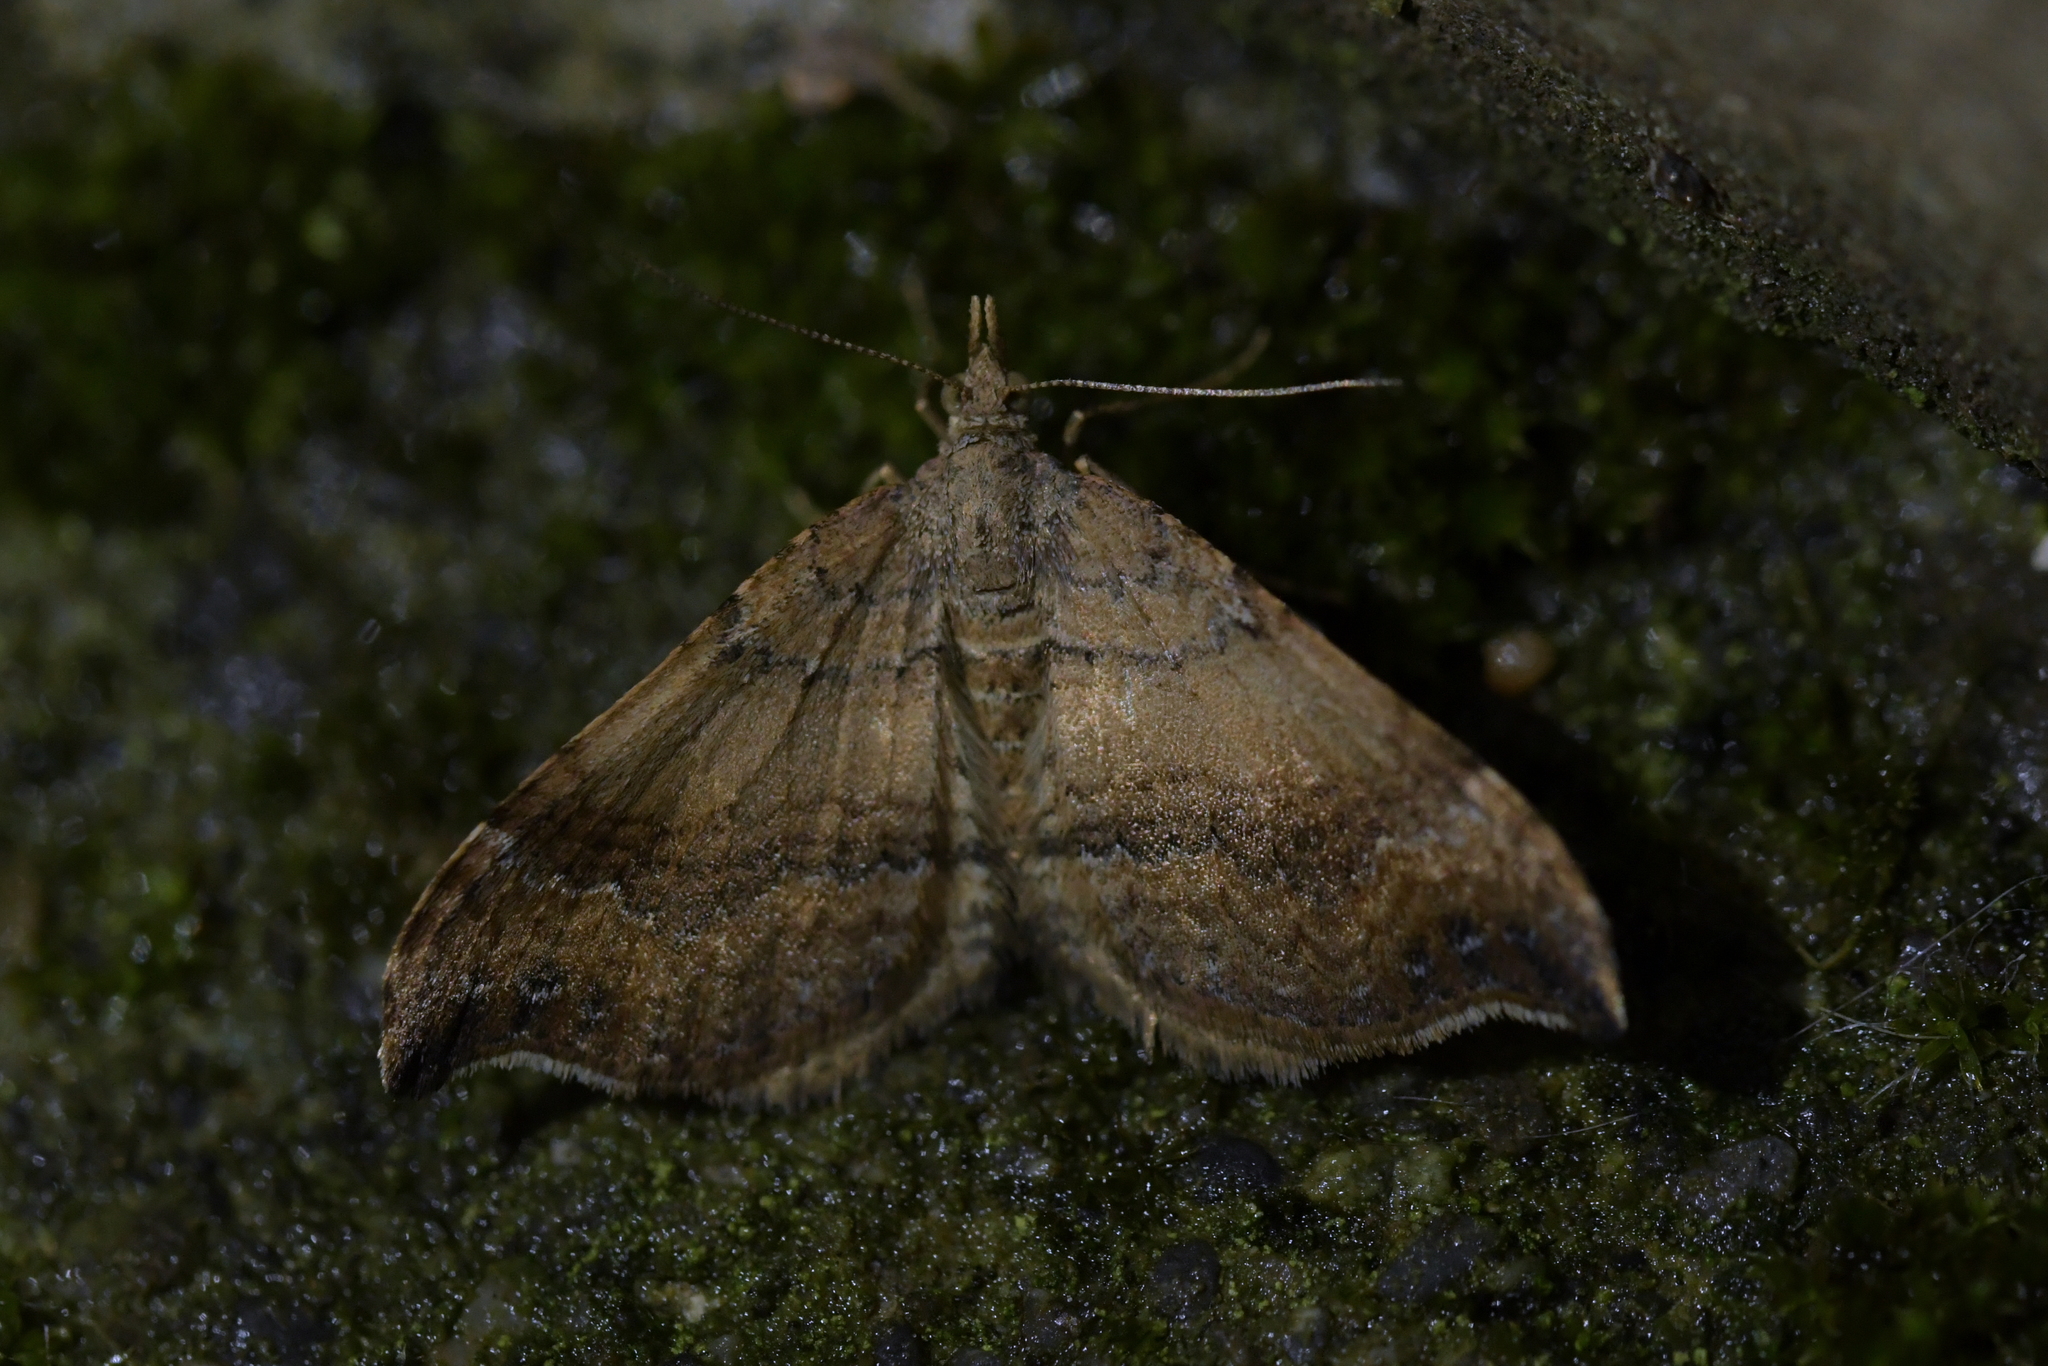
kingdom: Animalia
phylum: Arthropoda
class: Insecta
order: Lepidoptera
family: Geometridae
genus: Homodotis
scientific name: Homodotis megaspilata
